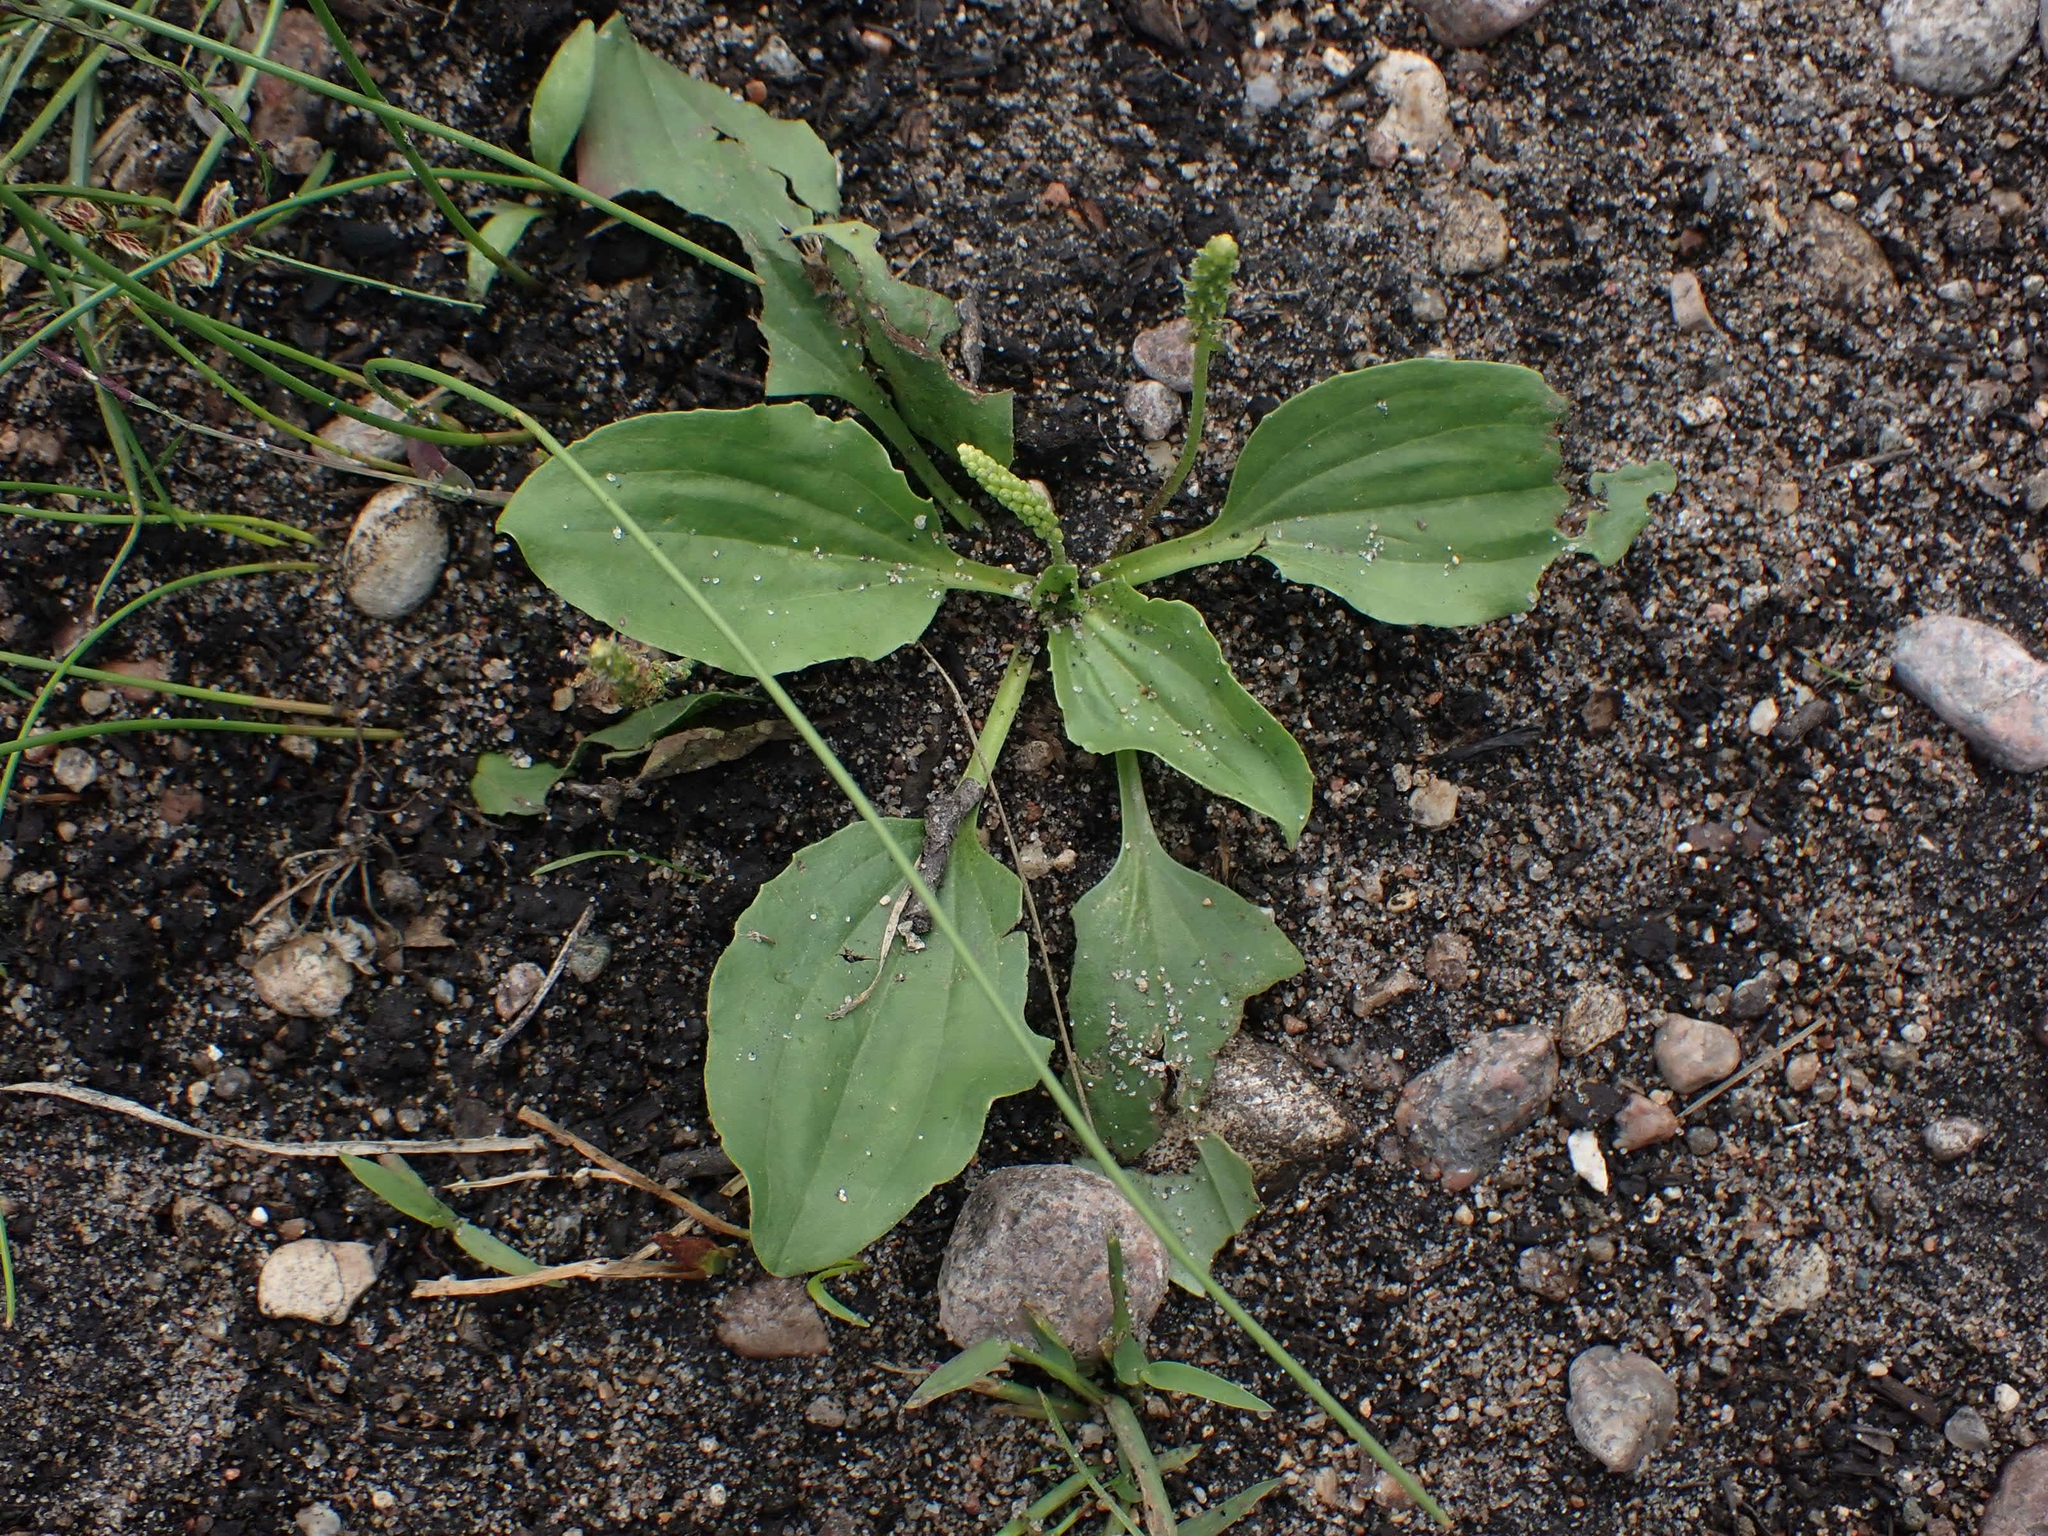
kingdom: Plantae
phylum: Tracheophyta
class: Magnoliopsida
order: Lamiales
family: Plantaginaceae
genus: Plantago
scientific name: Plantago major
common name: Common plantain
